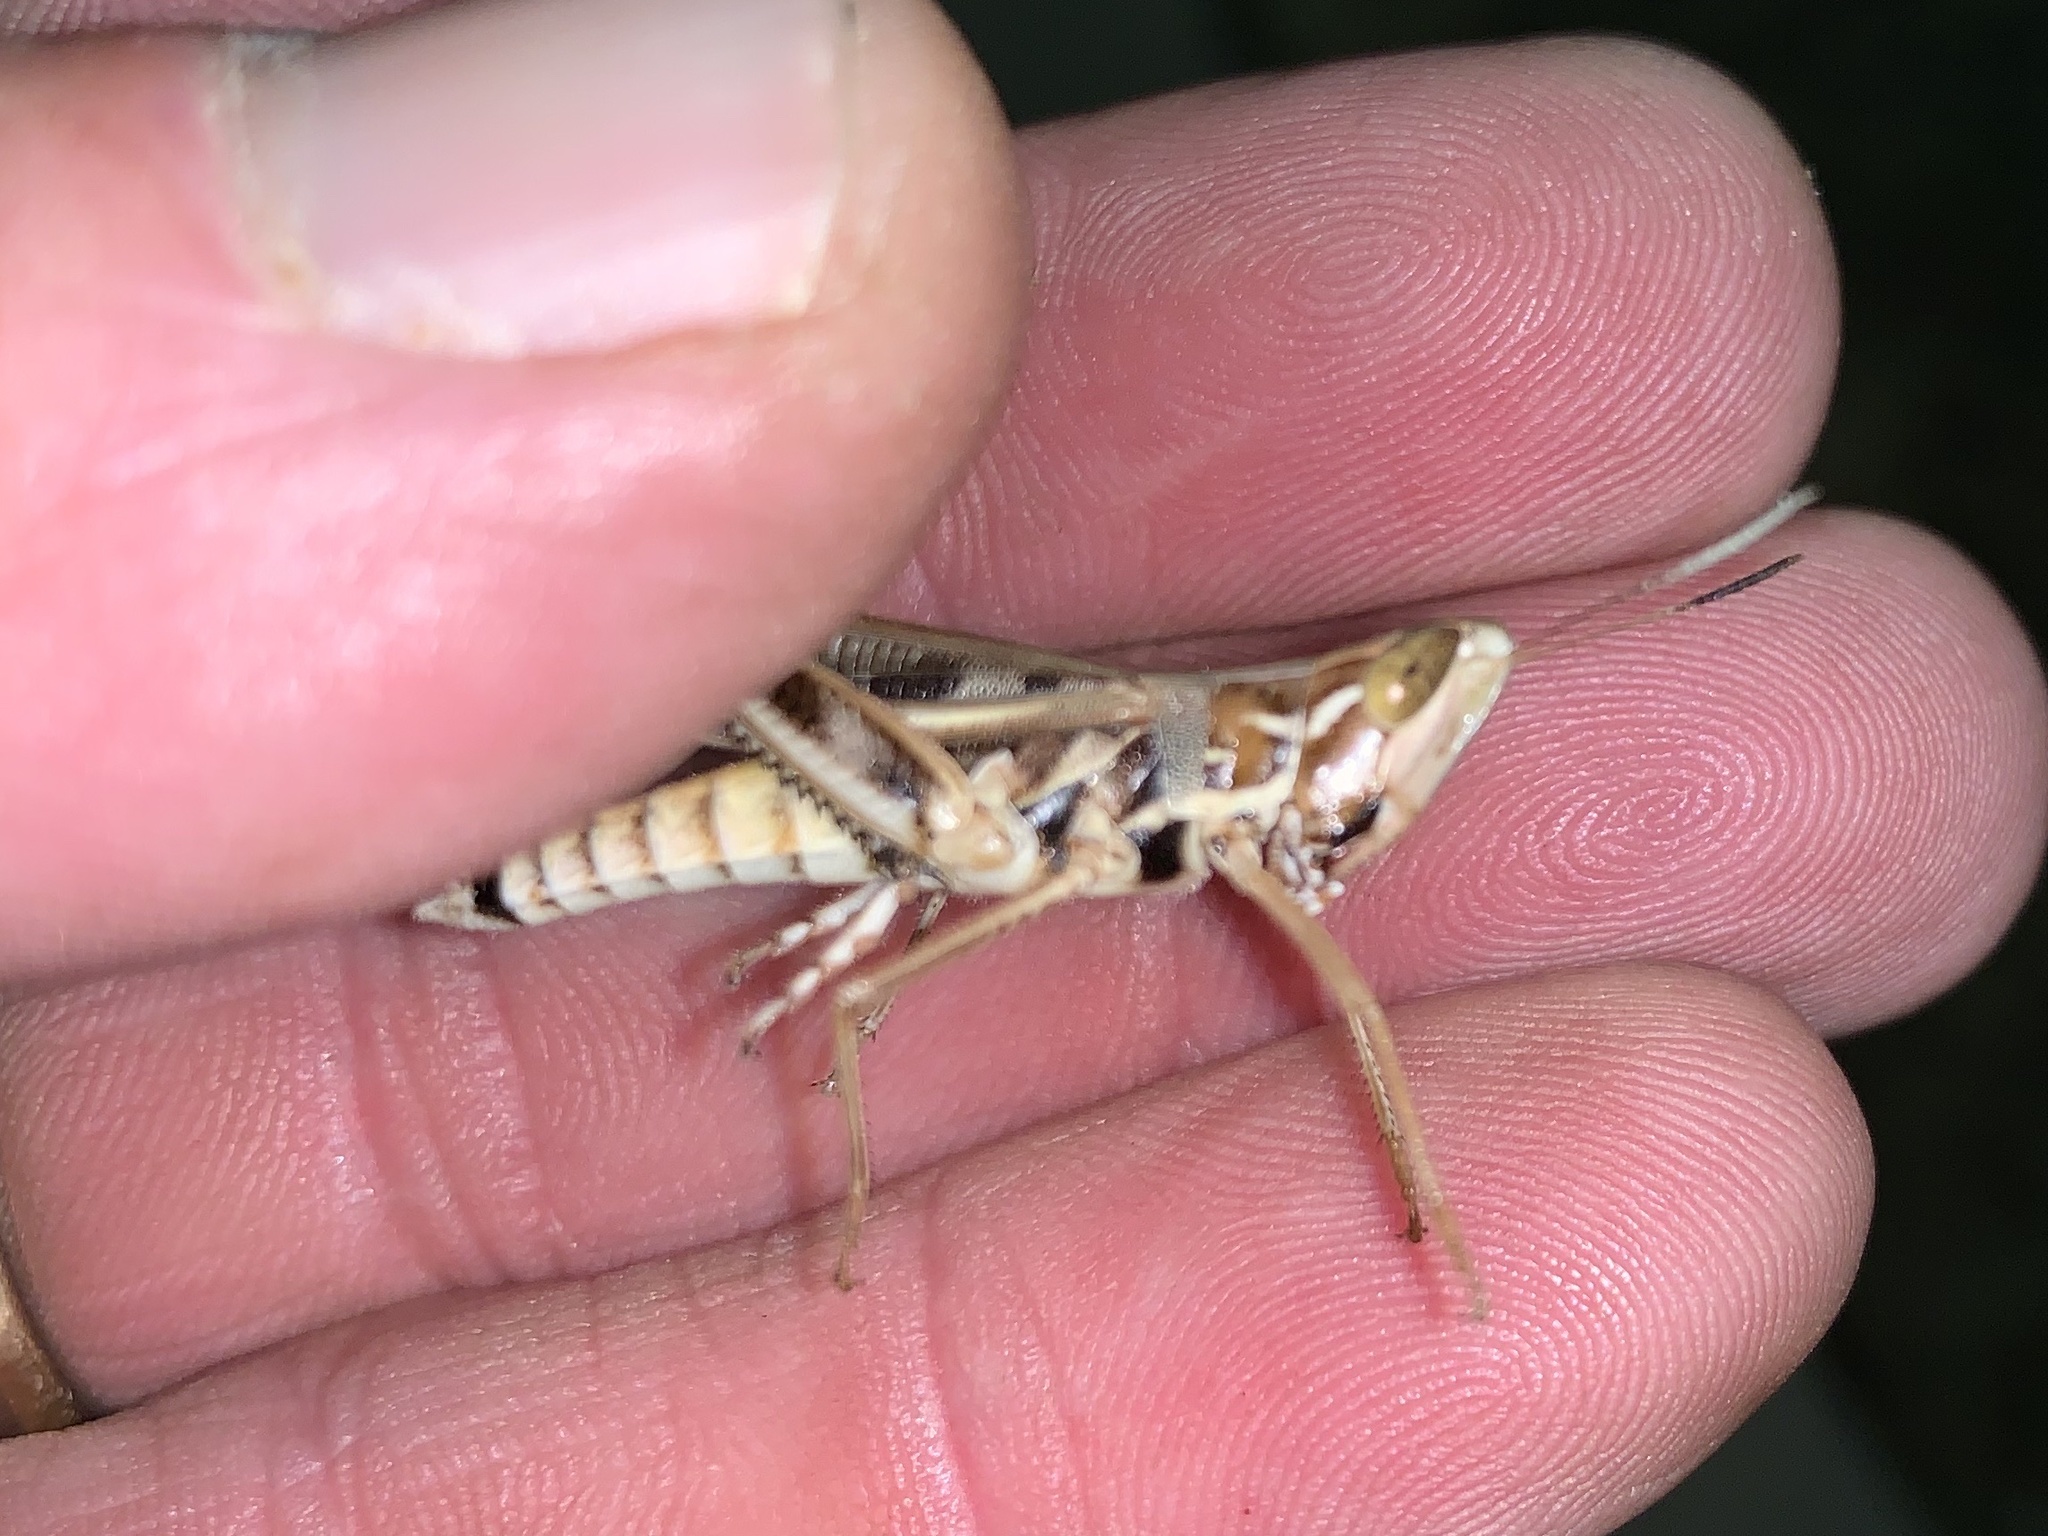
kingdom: Animalia
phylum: Arthropoda
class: Insecta
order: Orthoptera
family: Acrididae
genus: Syrbula
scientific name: Syrbula admirabilis
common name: Handsome grasshopper
